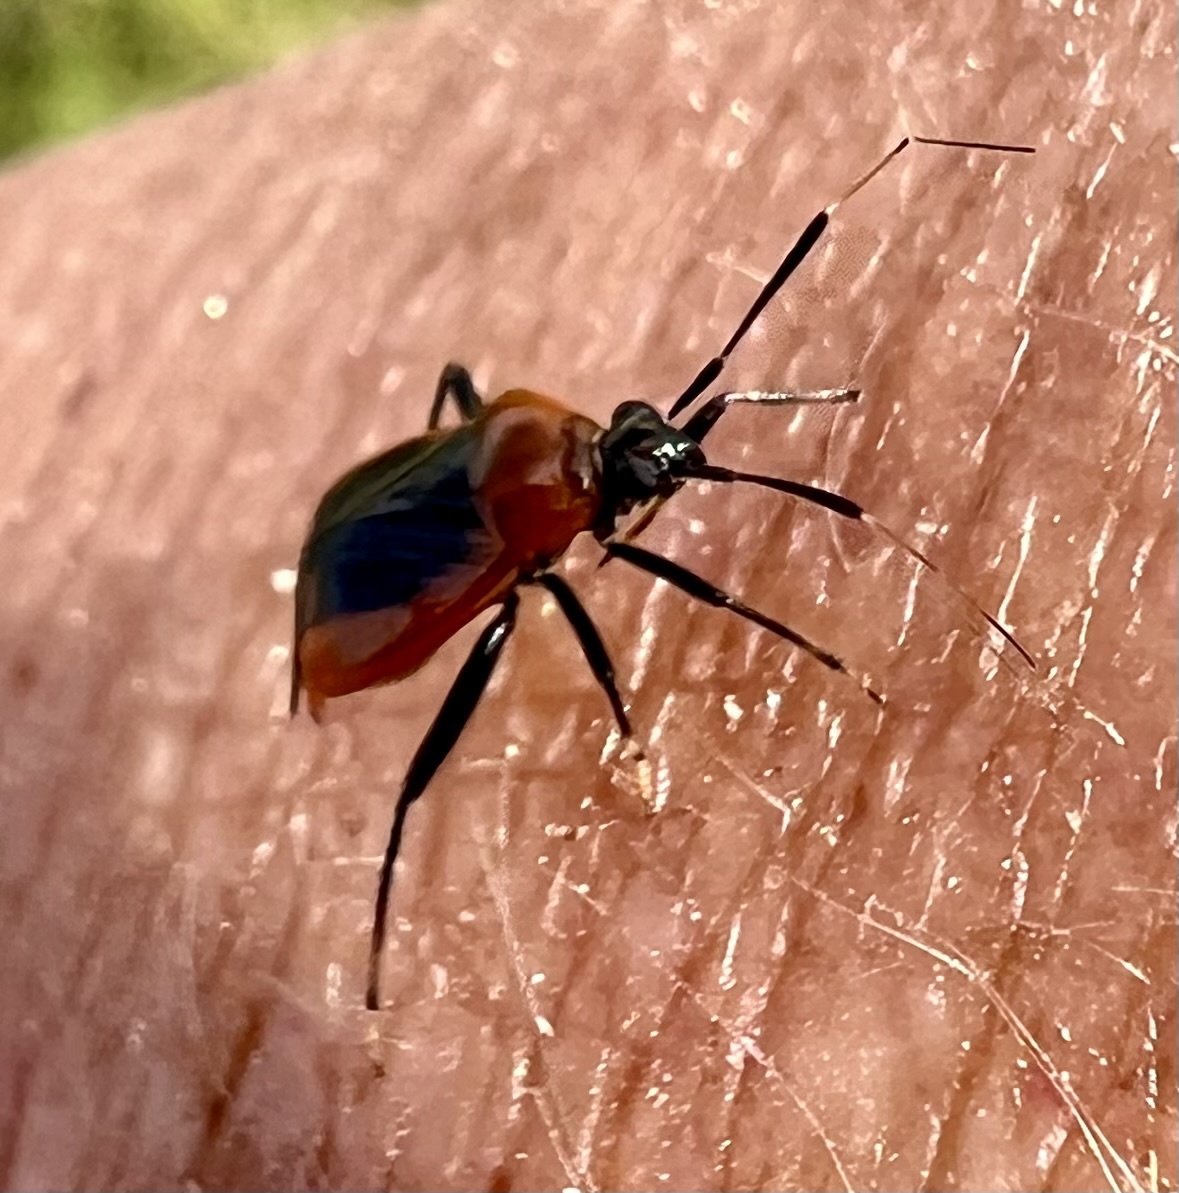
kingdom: Animalia
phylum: Arthropoda
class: Insecta
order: Hemiptera
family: Miridae
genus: Metriorrhynchomiris
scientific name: Metriorrhynchomiris dislocatus
